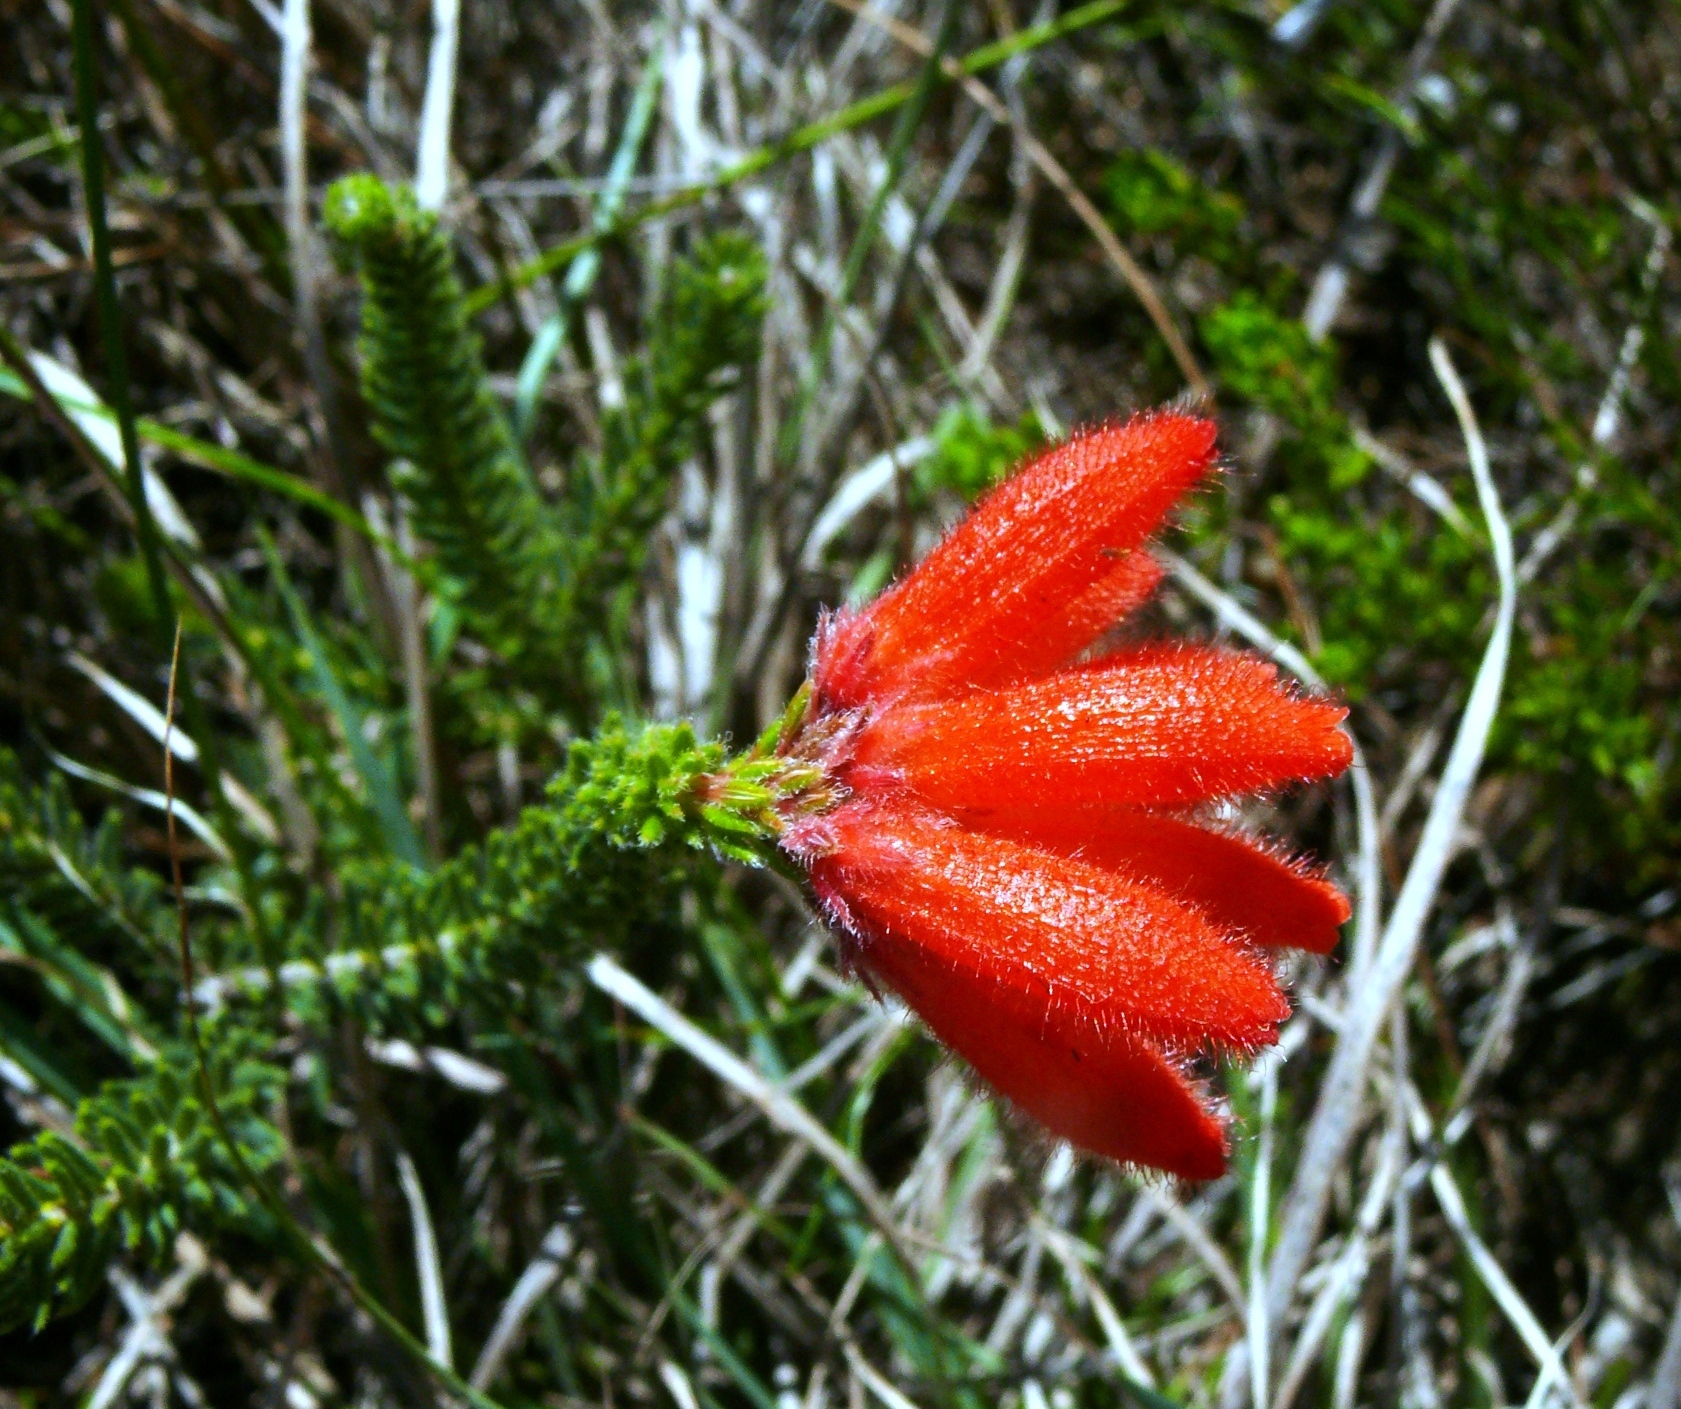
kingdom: Plantae
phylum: Tracheophyta
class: Magnoliopsida
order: Ericales
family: Ericaceae
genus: Erica
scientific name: Erica cerinthoides
